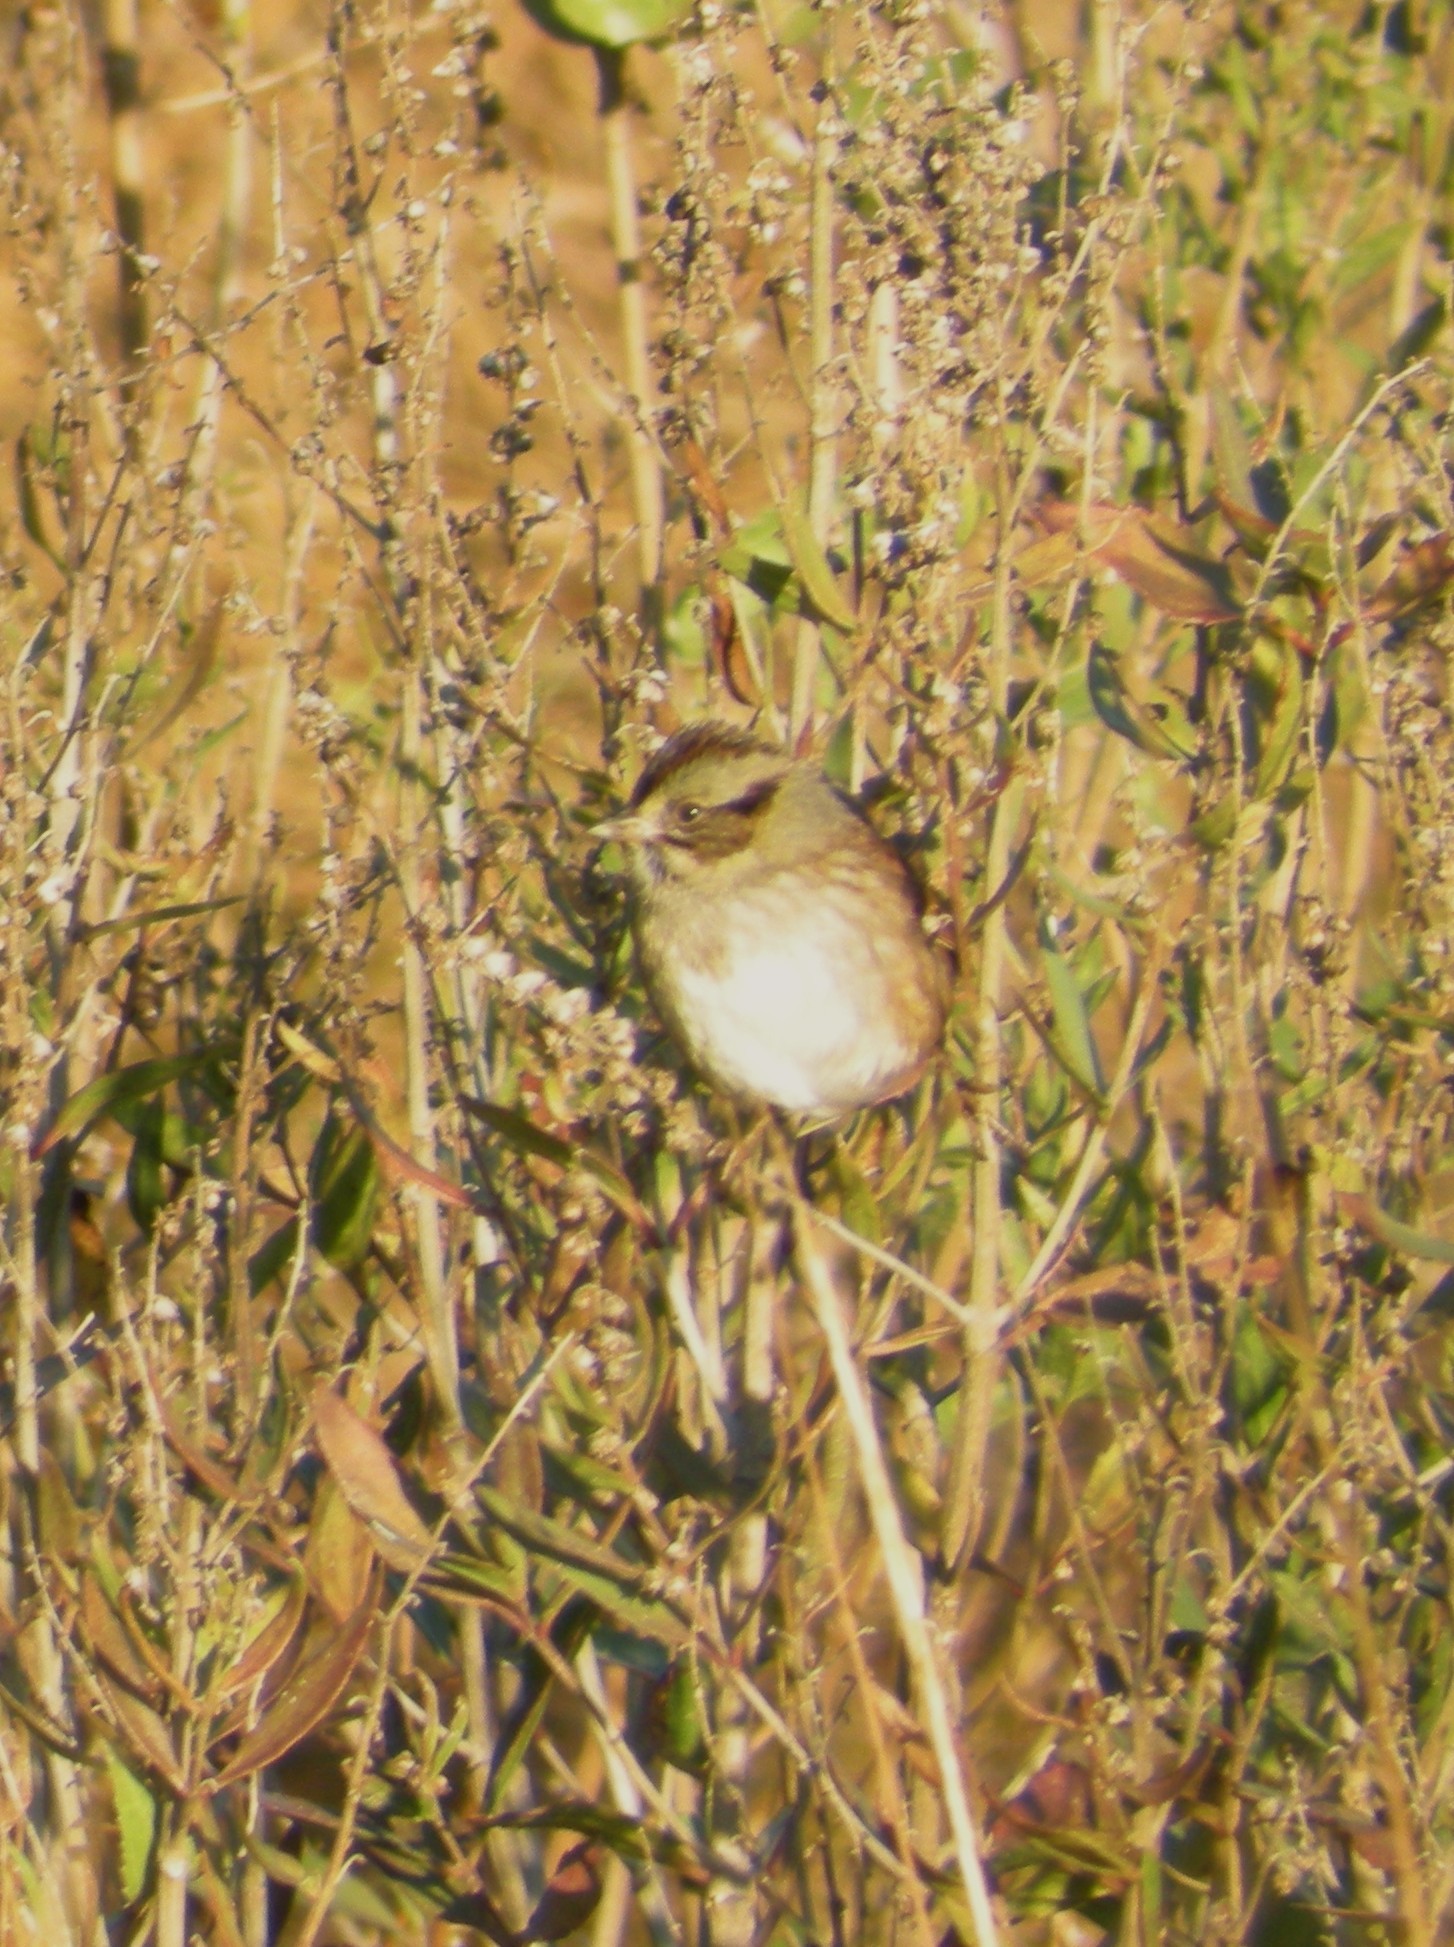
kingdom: Animalia
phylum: Chordata
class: Aves
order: Passeriformes
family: Passerellidae
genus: Melospiza
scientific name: Melospiza georgiana
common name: Swamp sparrow
